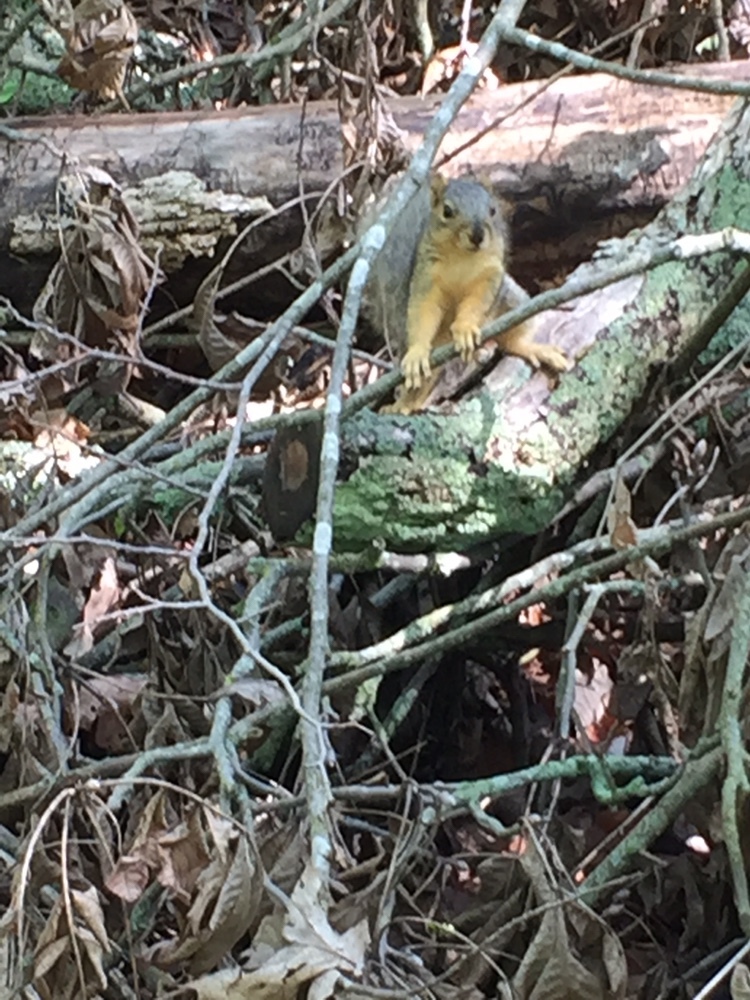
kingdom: Animalia
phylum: Chordata
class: Mammalia
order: Rodentia
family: Sciuridae
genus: Sciurus
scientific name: Sciurus niger
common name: Fox squirrel
